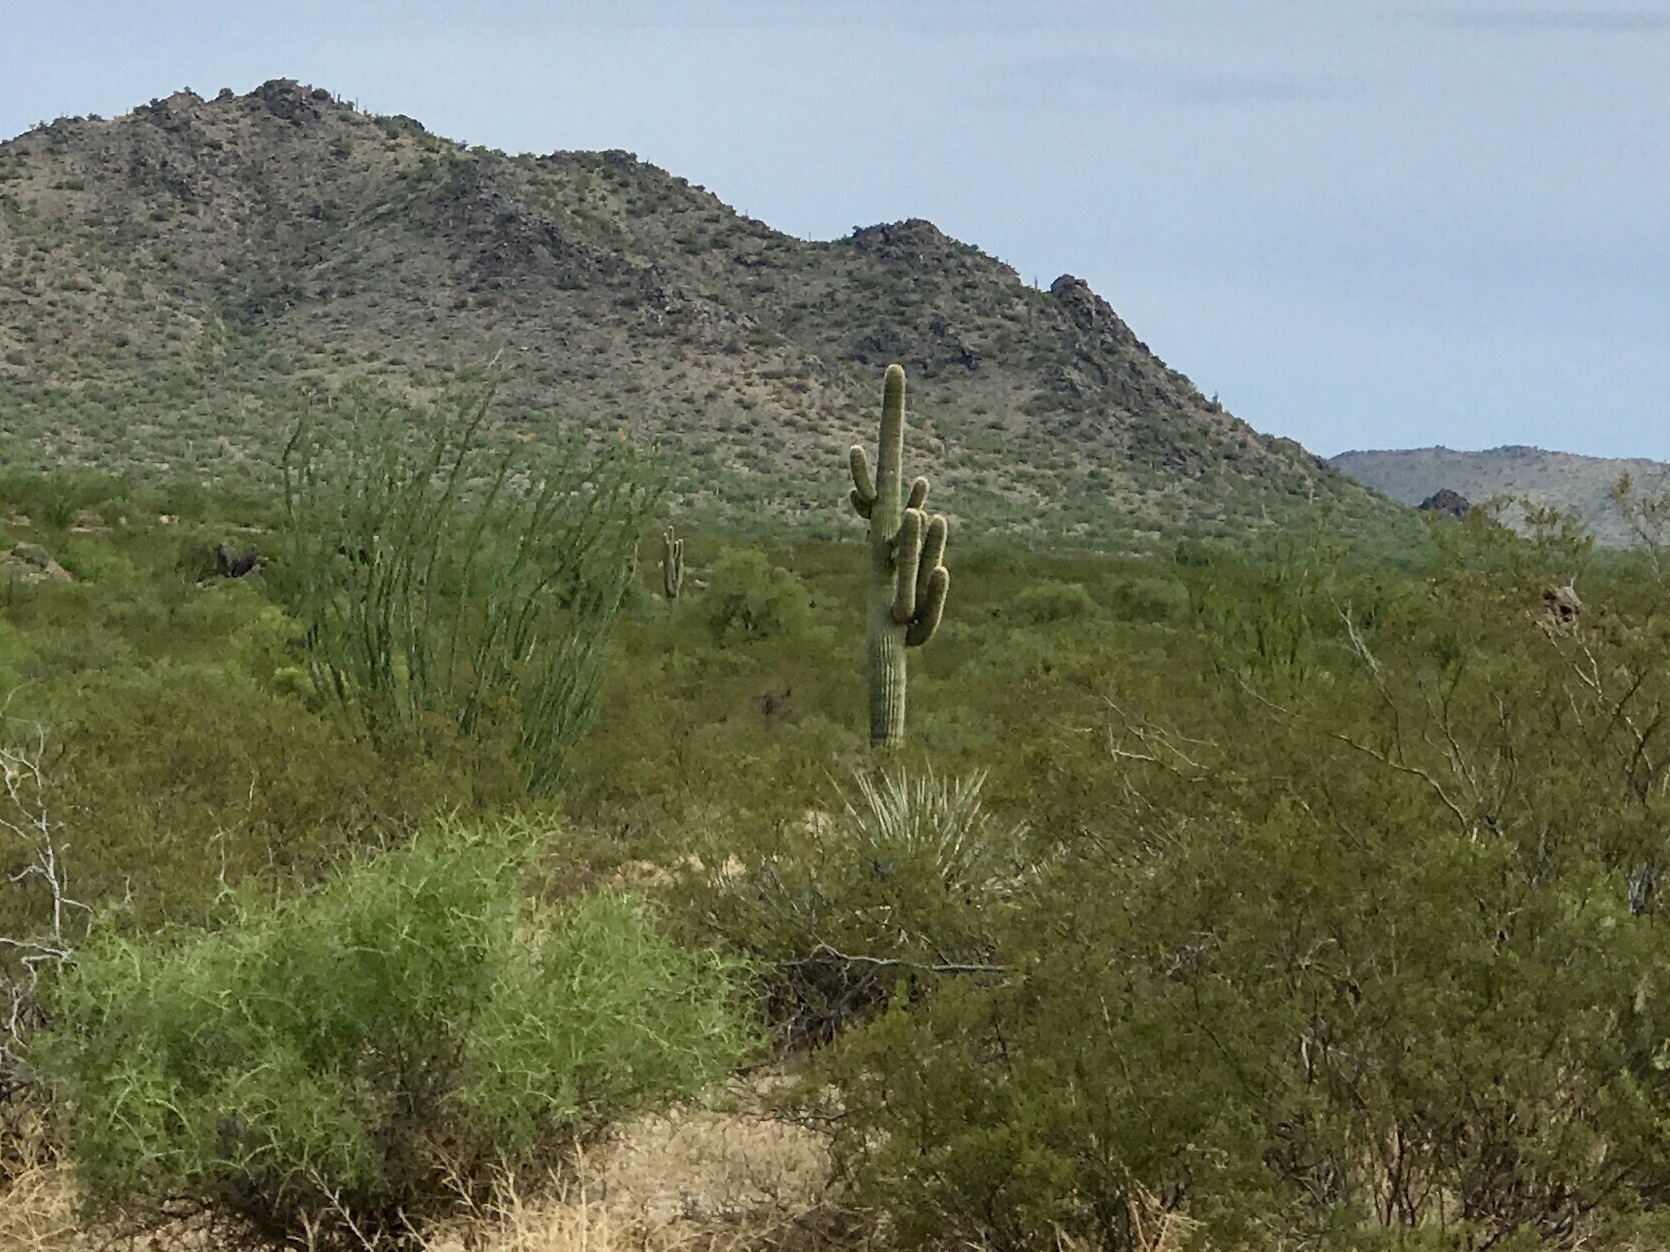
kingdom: Plantae
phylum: Tracheophyta
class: Magnoliopsida
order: Caryophyllales
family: Cactaceae
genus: Carnegiea
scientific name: Carnegiea gigantea
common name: Saguaro
